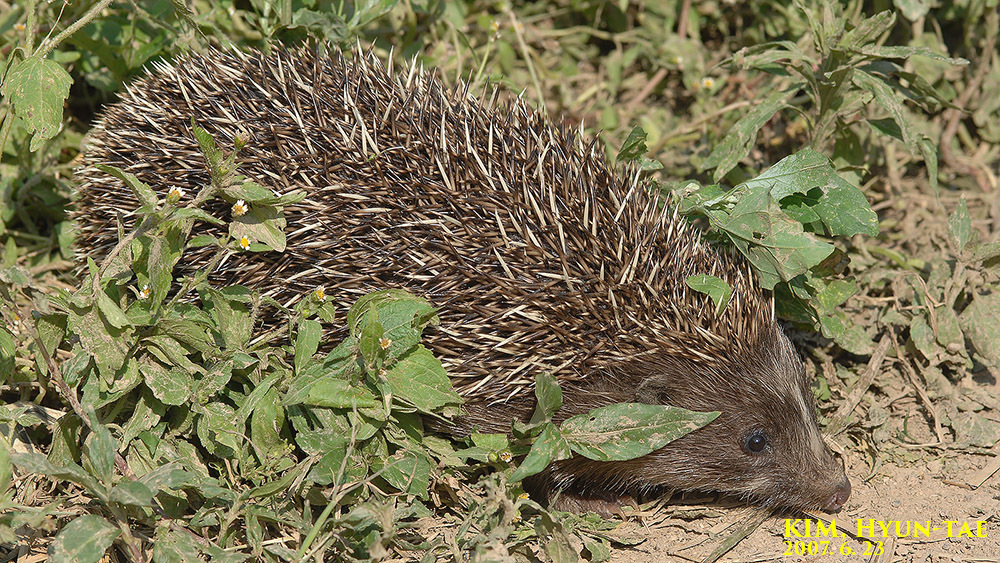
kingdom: Animalia
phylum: Chordata
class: Mammalia
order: Erinaceomorpha
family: Erinaceidae
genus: Erinaceus
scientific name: Erinaceus amurensis
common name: Amur hedgehog
